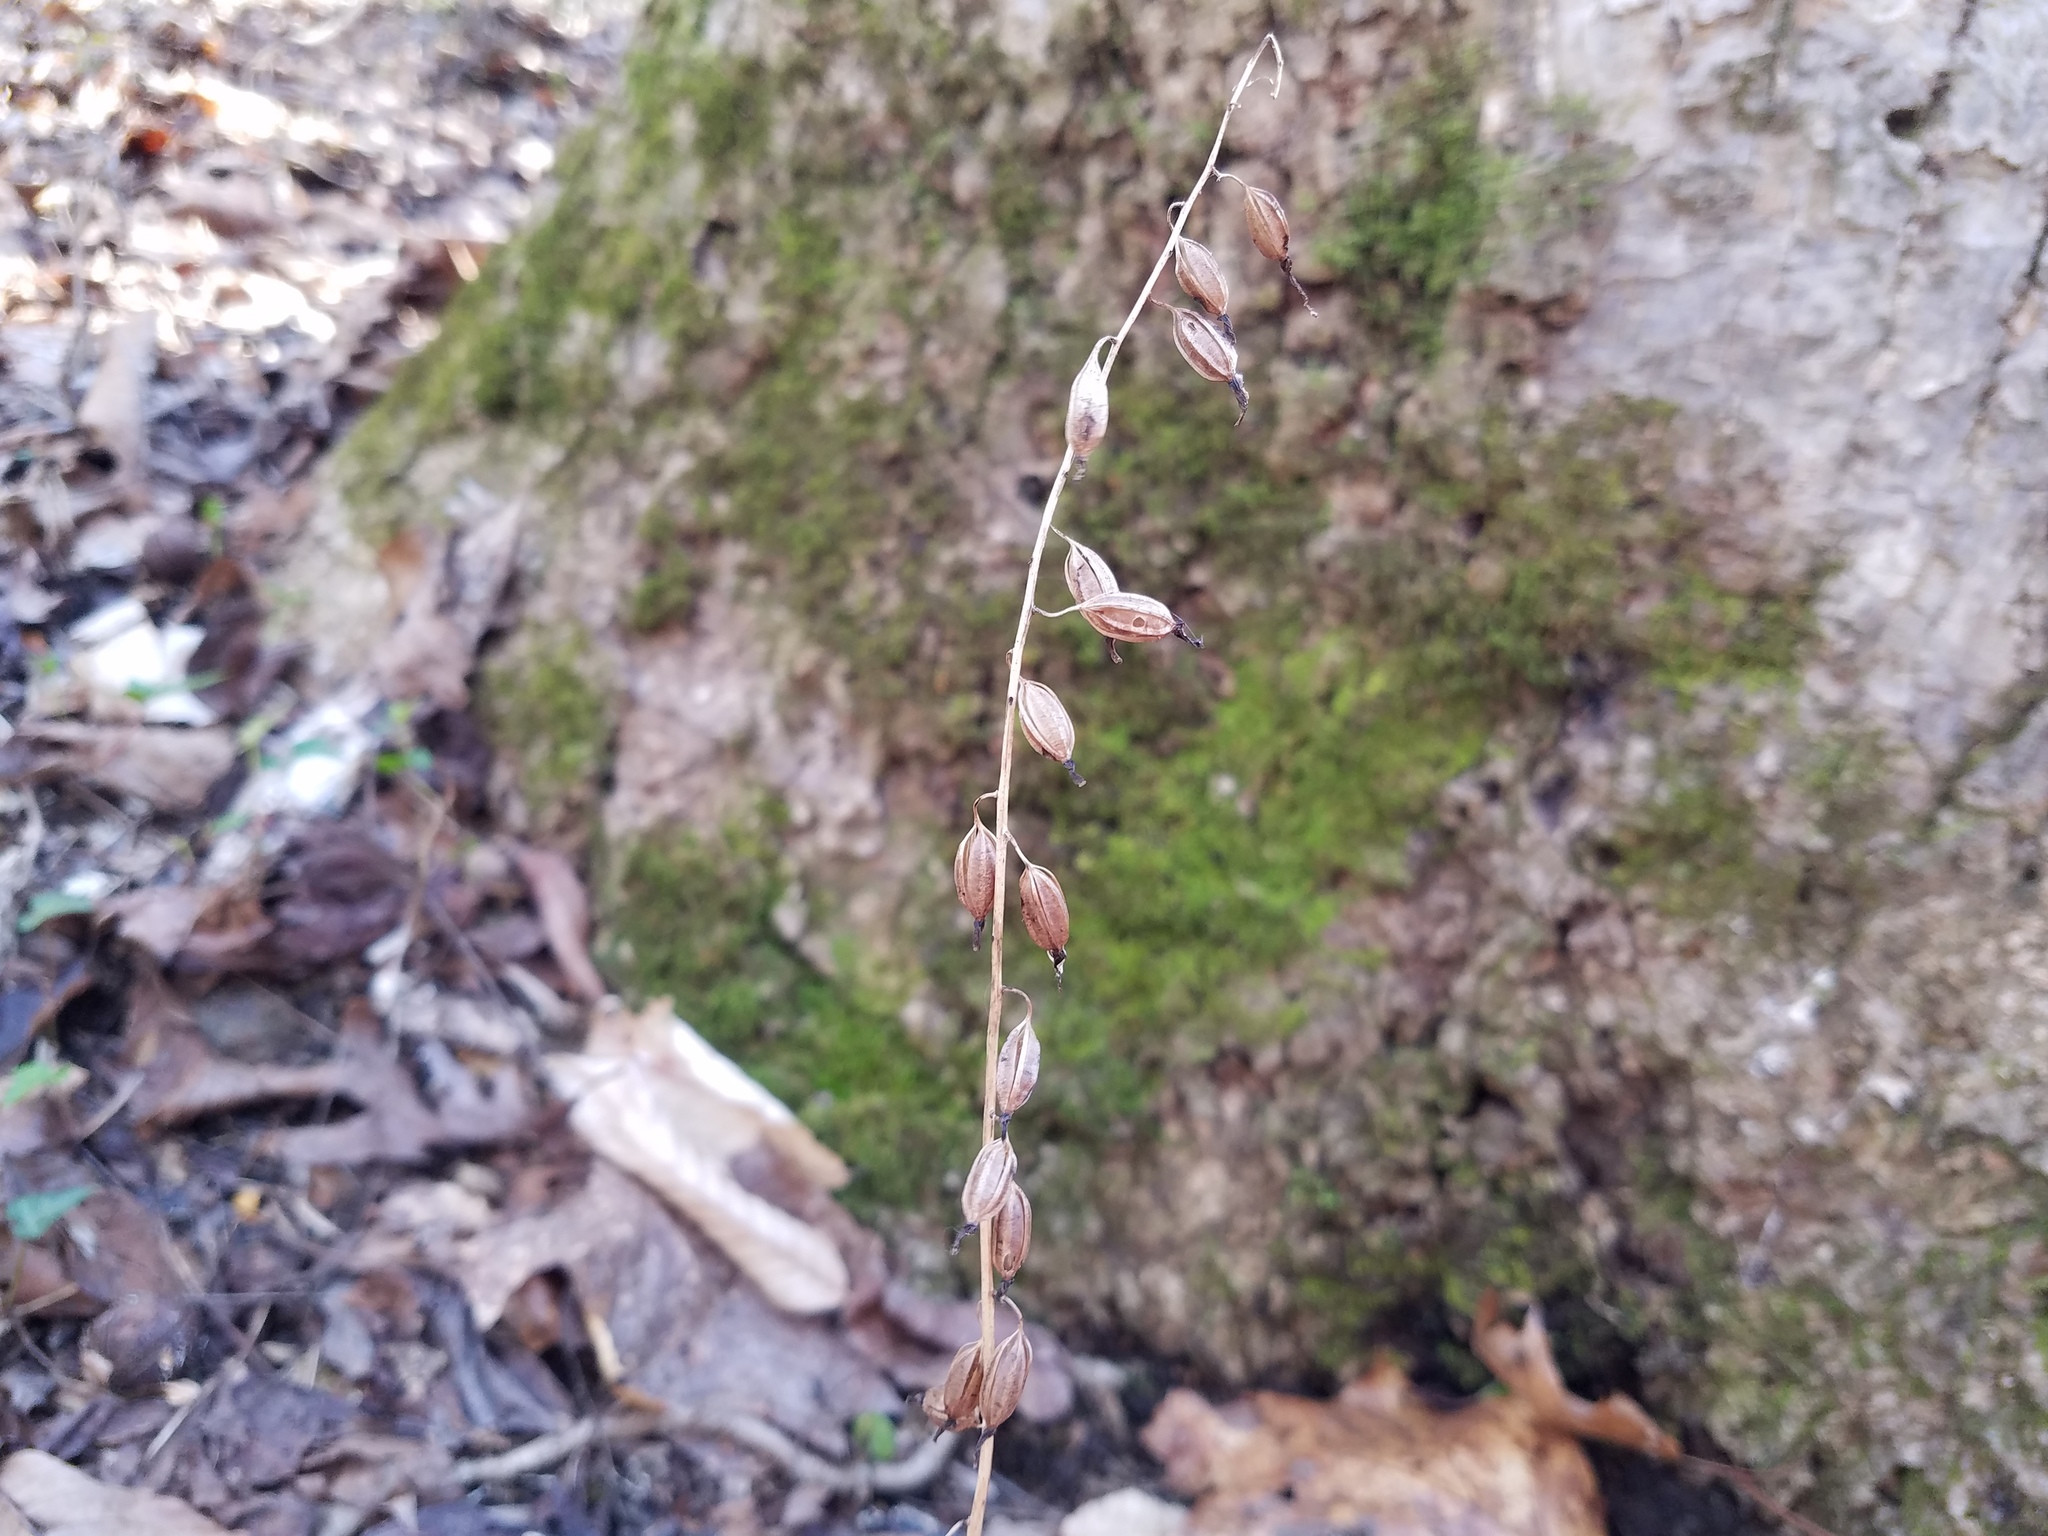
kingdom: Plantae
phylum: Tracheophyta
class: Liliopsida
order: Asparagales
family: Orchidaceae
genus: Tipularia
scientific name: Tipularia discolor
